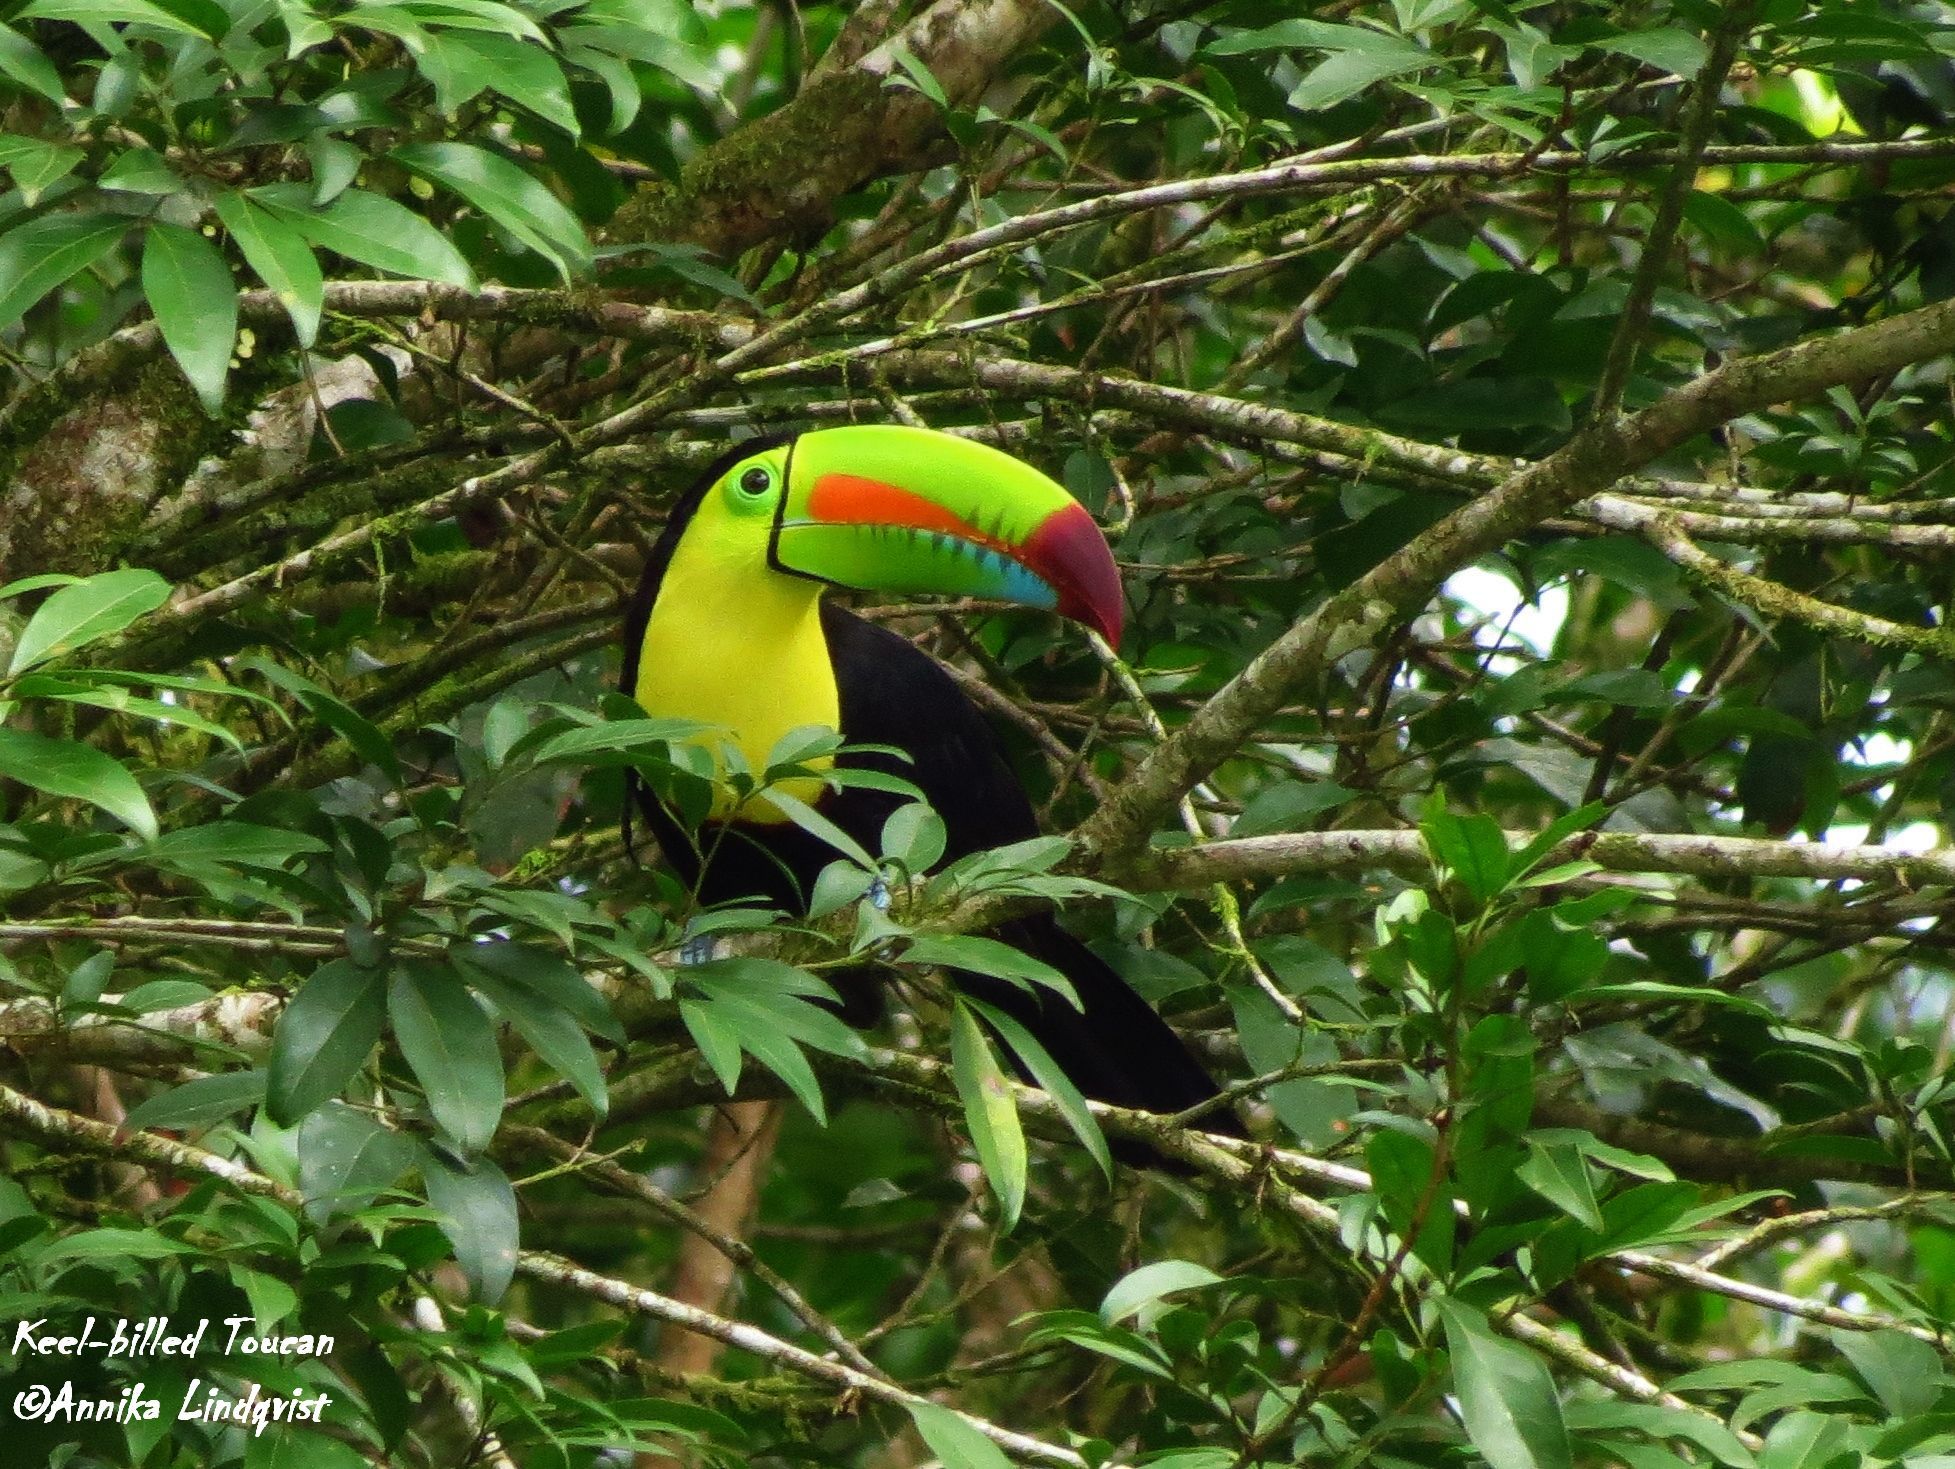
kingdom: Animalia
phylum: Chordata
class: Aves
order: Piciformes
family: Ramphastidae
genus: Ramphastos
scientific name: Ramphastos sulfuratus
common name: Keel-billed toucan
